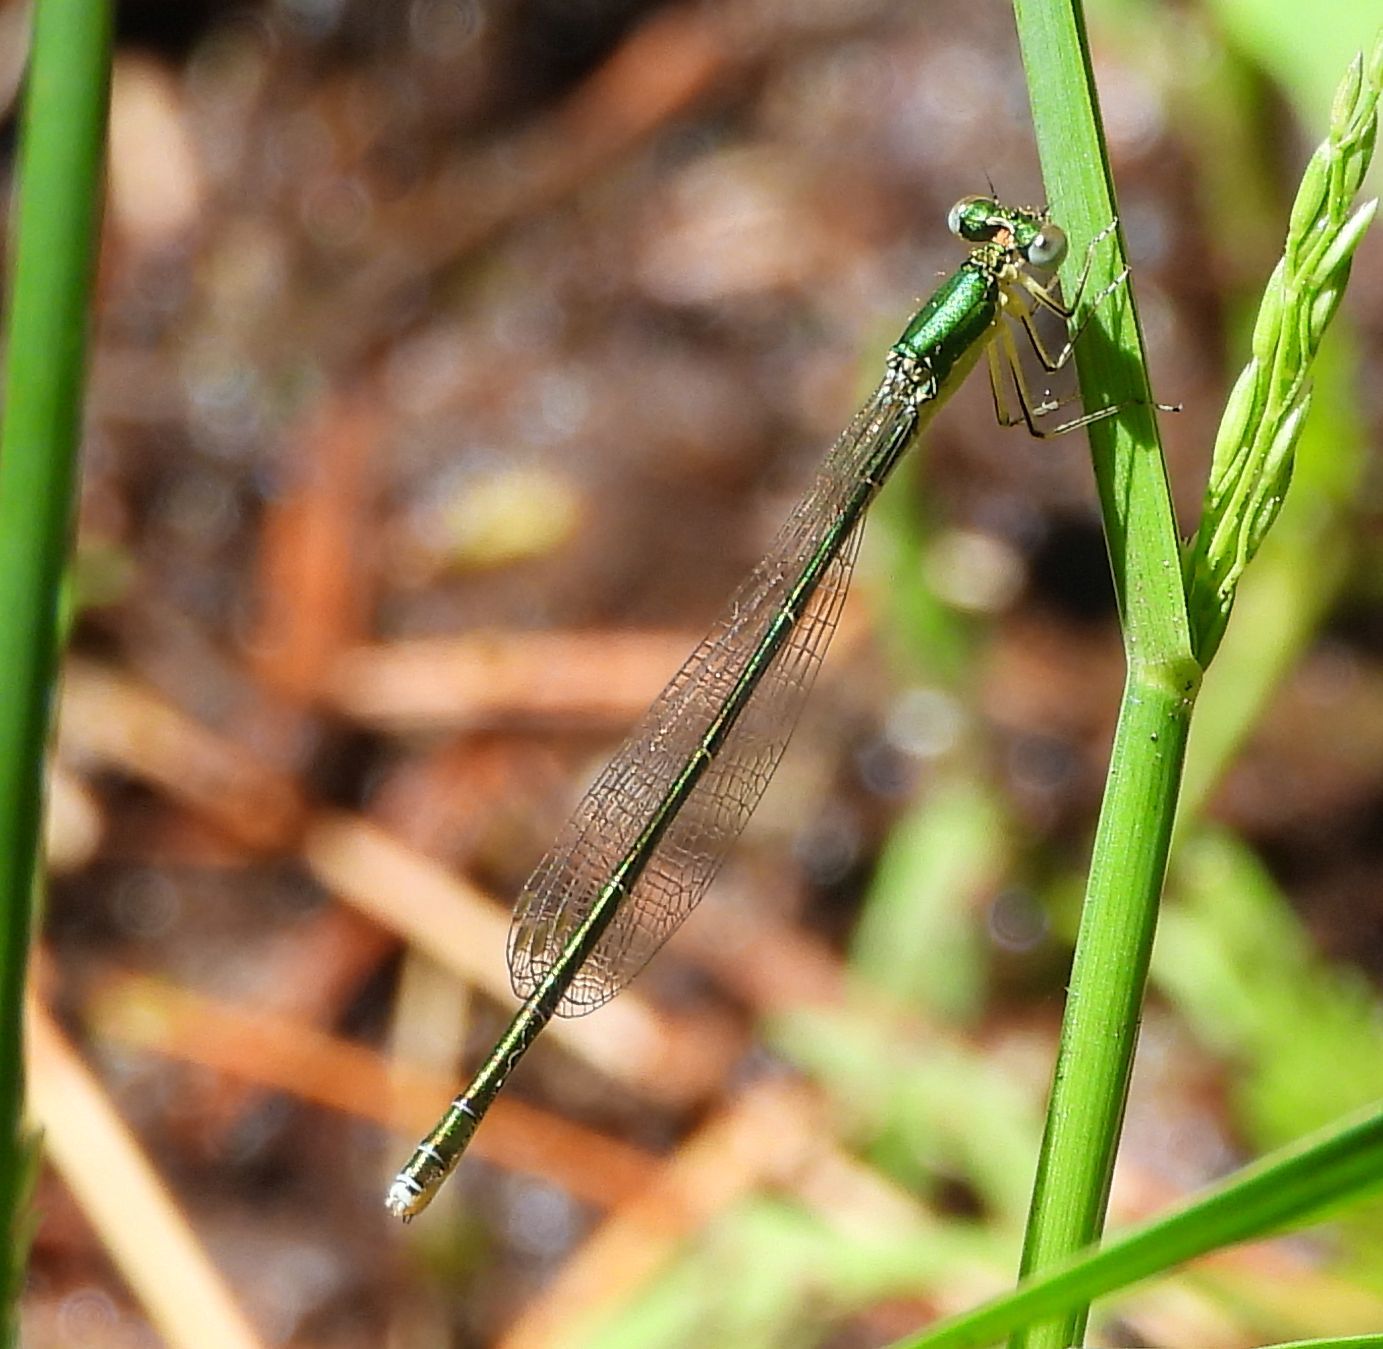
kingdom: Animalia
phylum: Arthropoda
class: Insecta
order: Odonata
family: Coenagrionidae
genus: Nehalennia
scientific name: Nehalennia irene
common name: Sedge sprite
